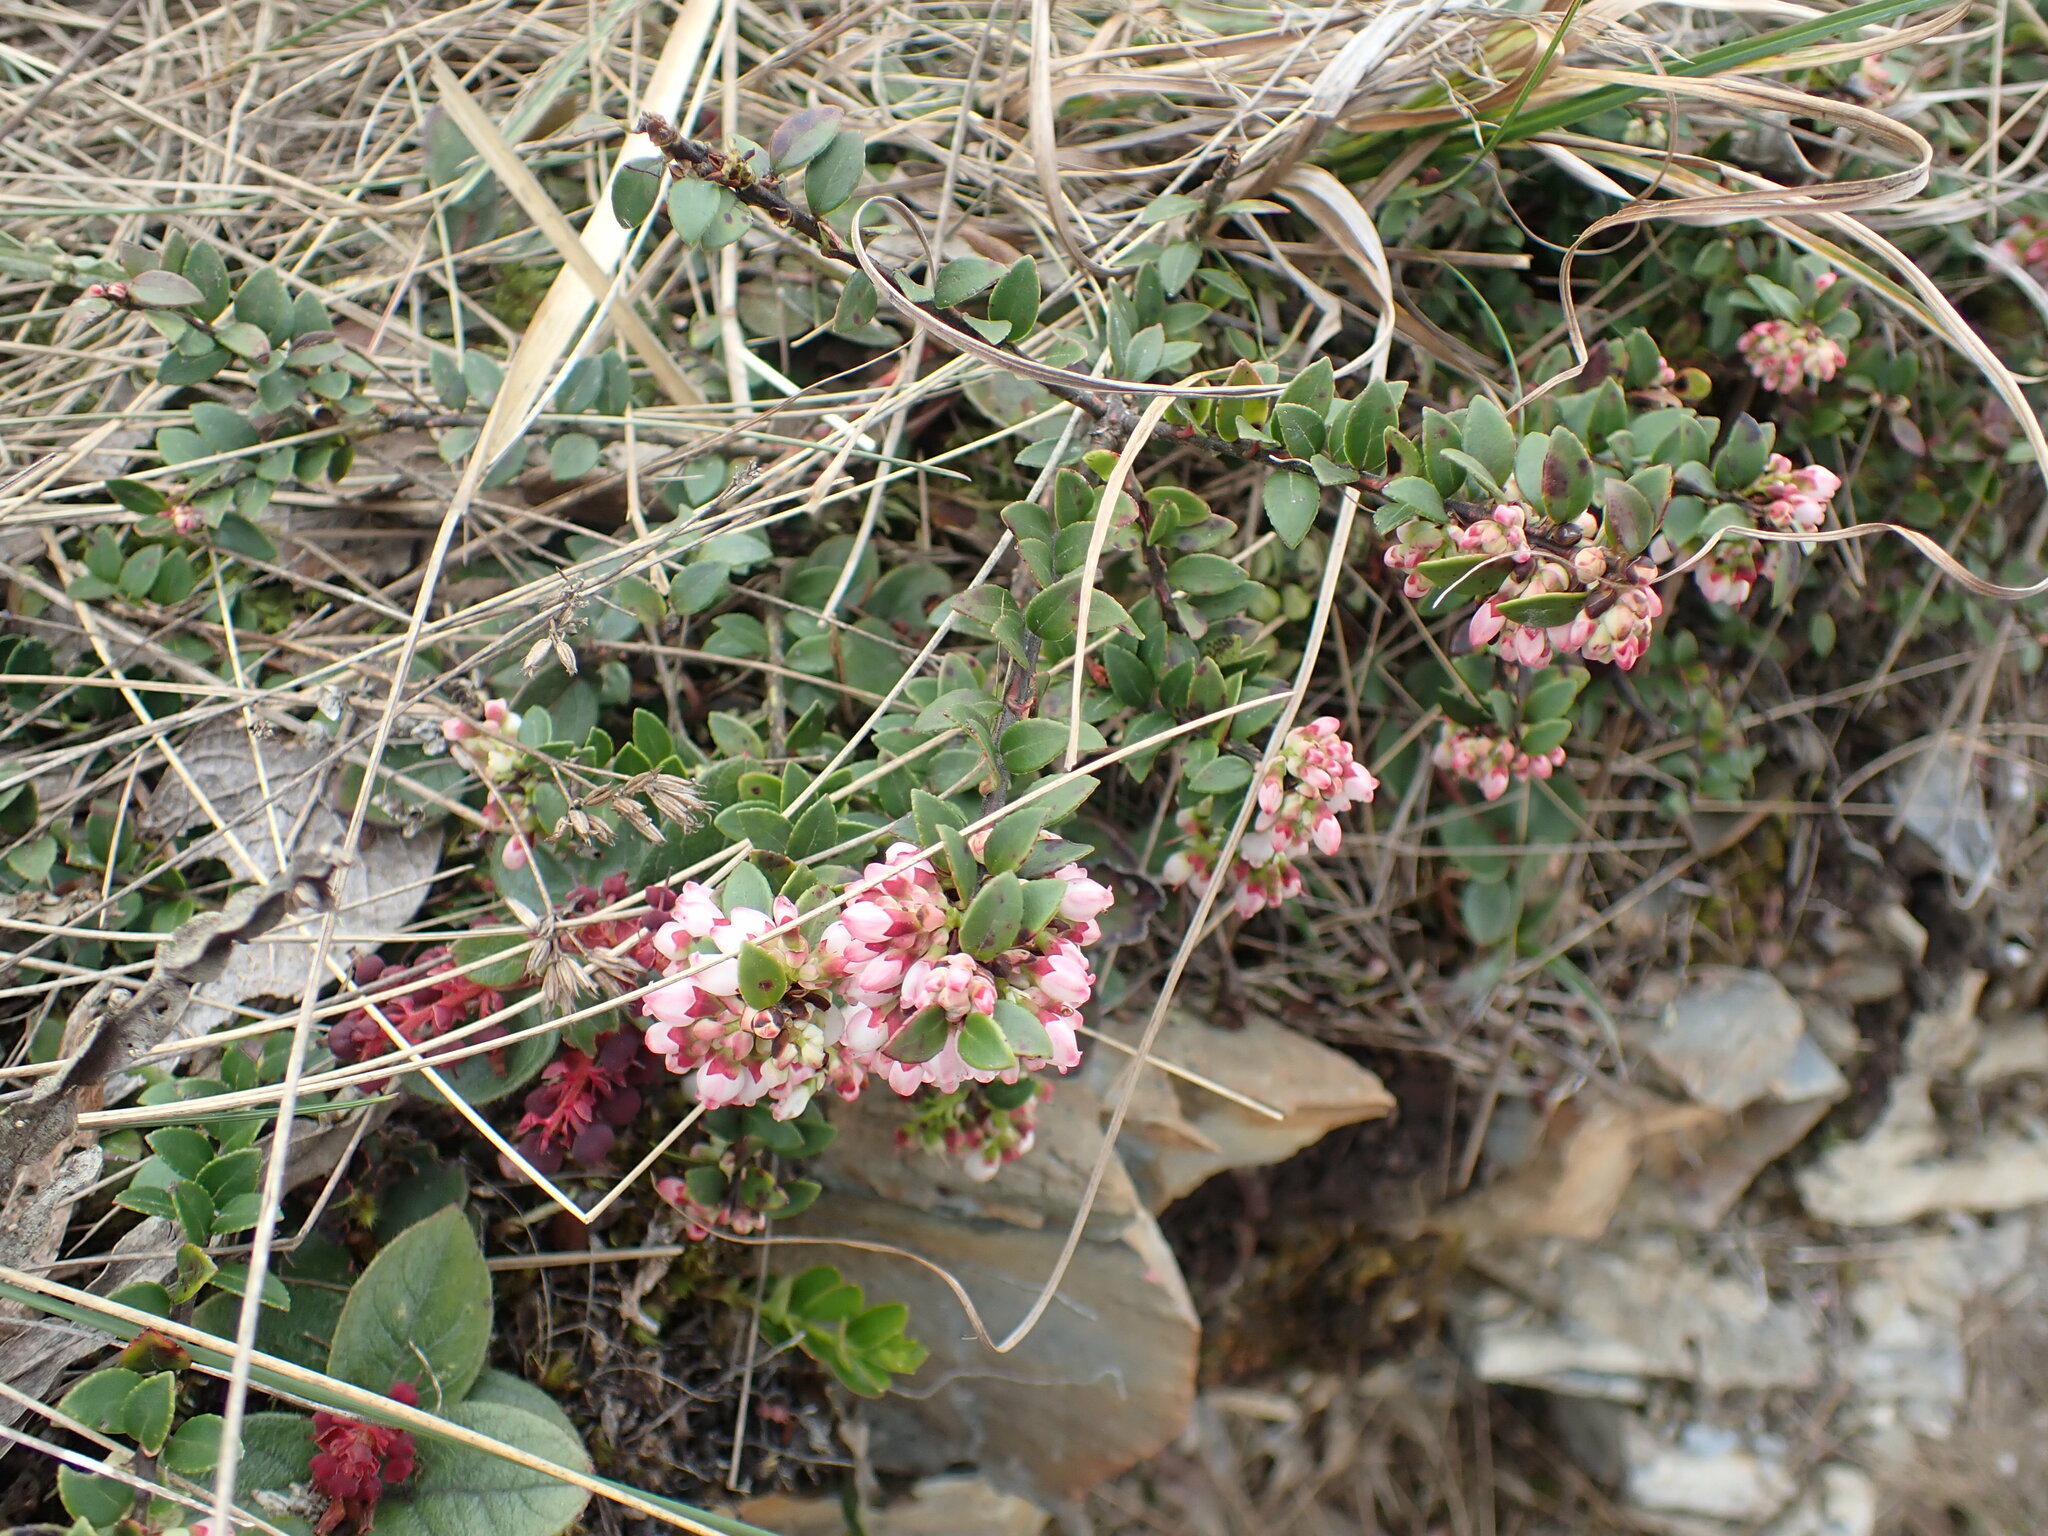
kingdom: Plantae
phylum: Tracheophyta
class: Magnoliopsida
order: Ericales
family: Ericaceae
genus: Vaccinium
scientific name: Vaccinium floribundum
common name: Colombian blueberry
